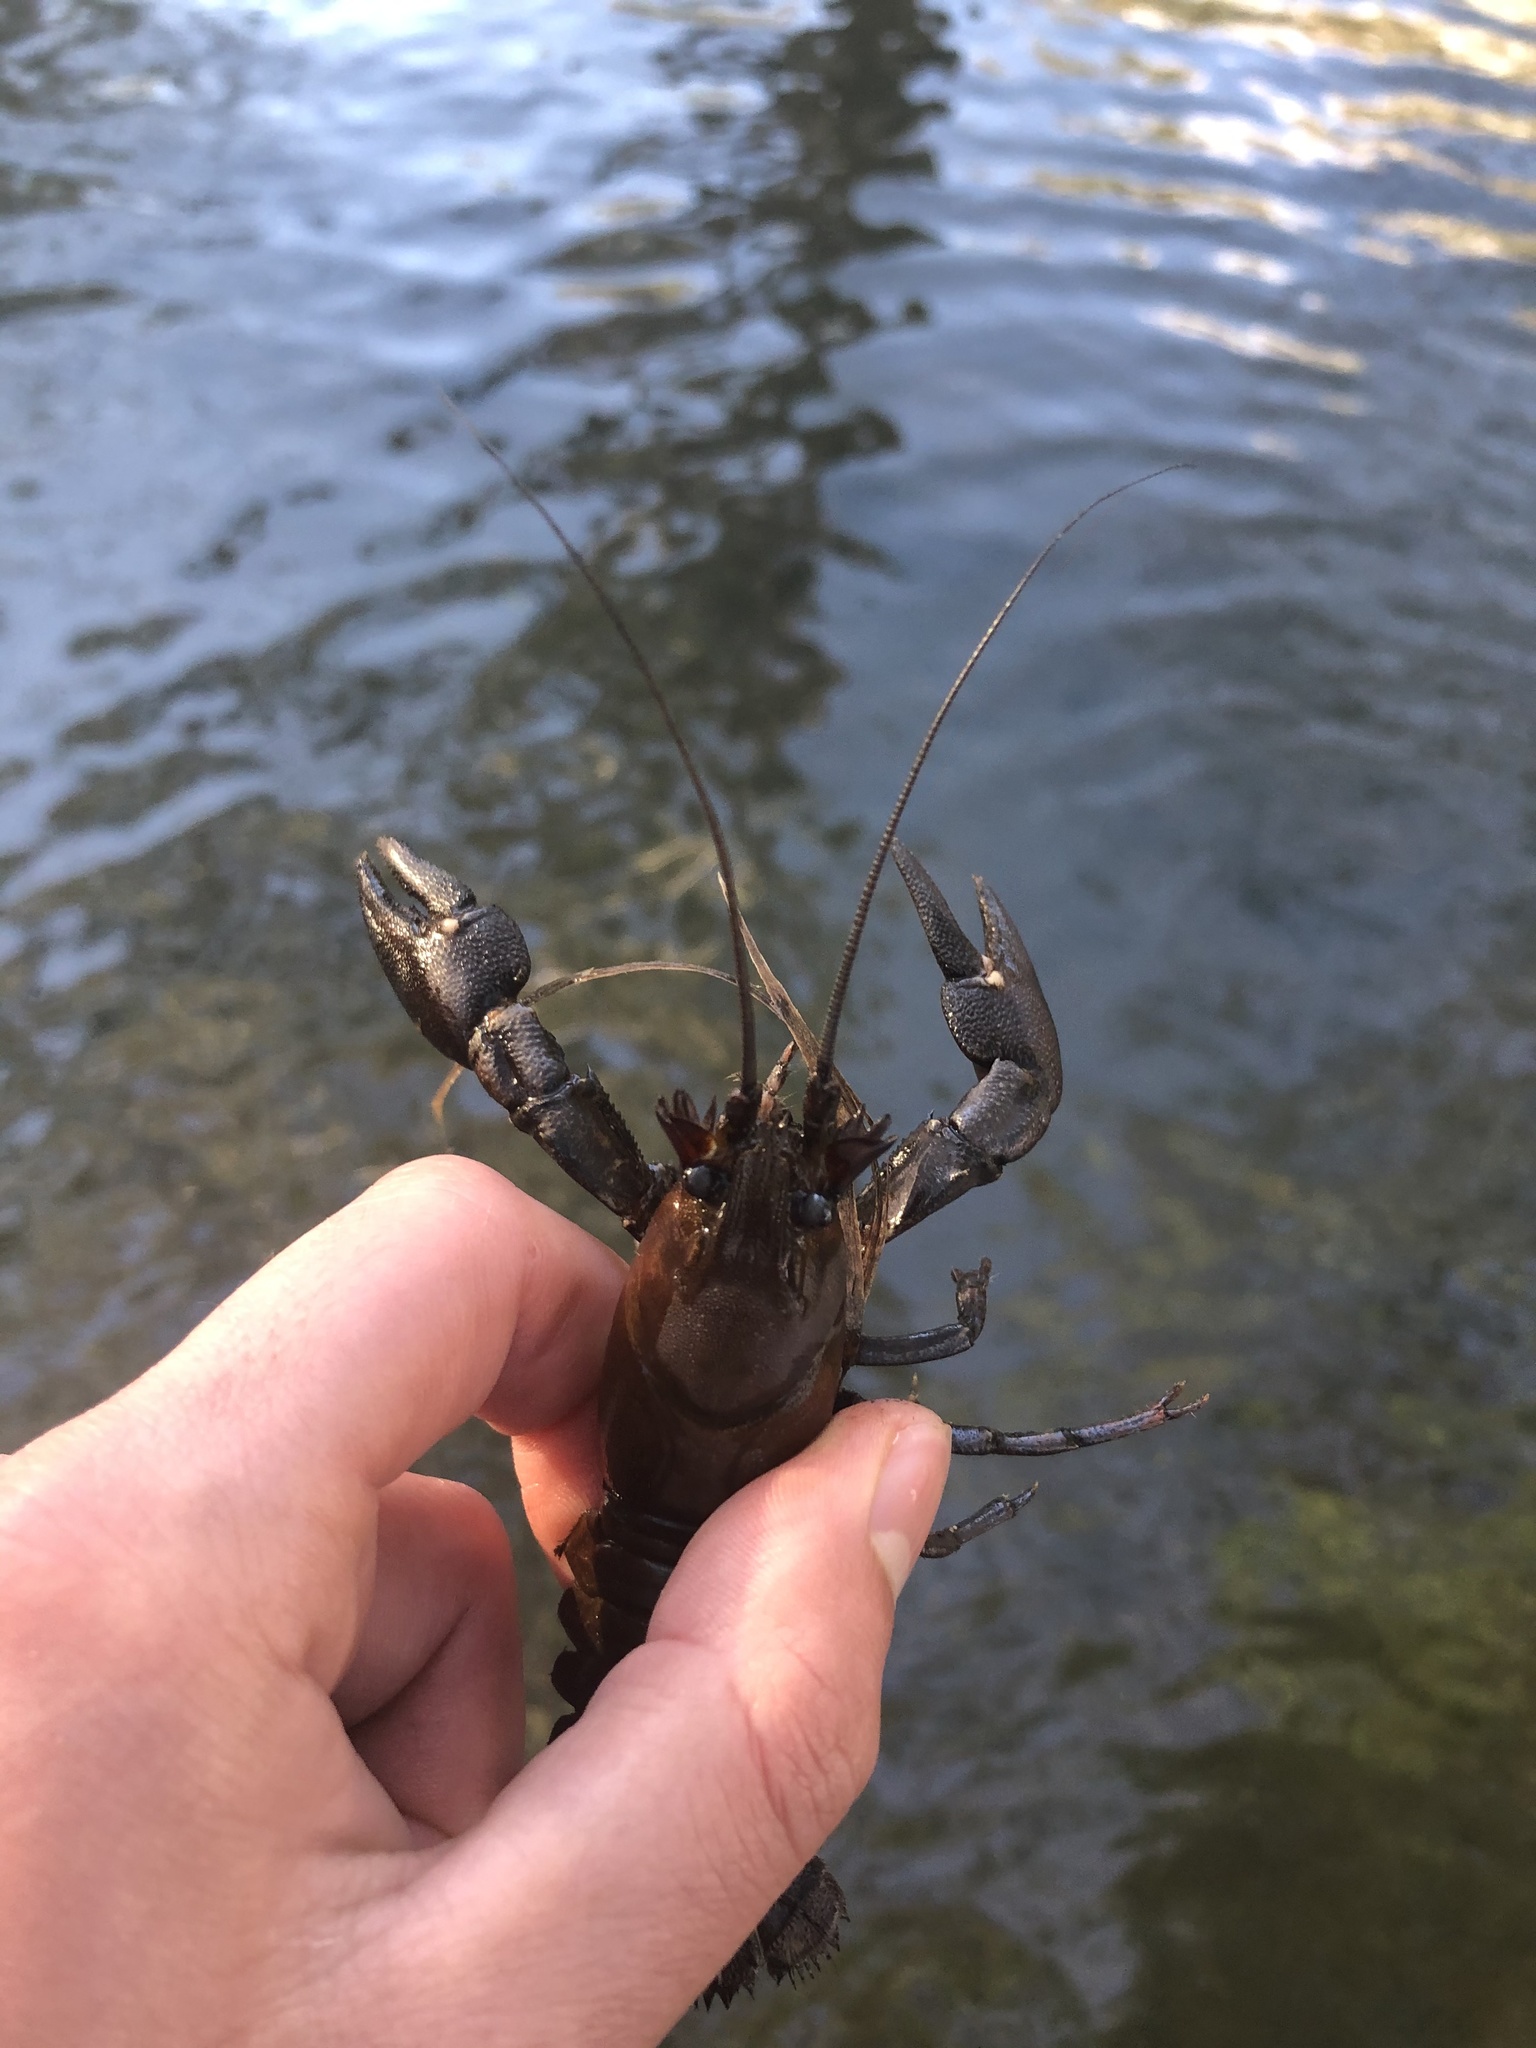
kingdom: Animalia
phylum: Arthropoda
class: Malacostraca
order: Decapoda
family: Astacidae
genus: Pacifastacus
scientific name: Pacifastacus leniusculus
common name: Signal crayfish
